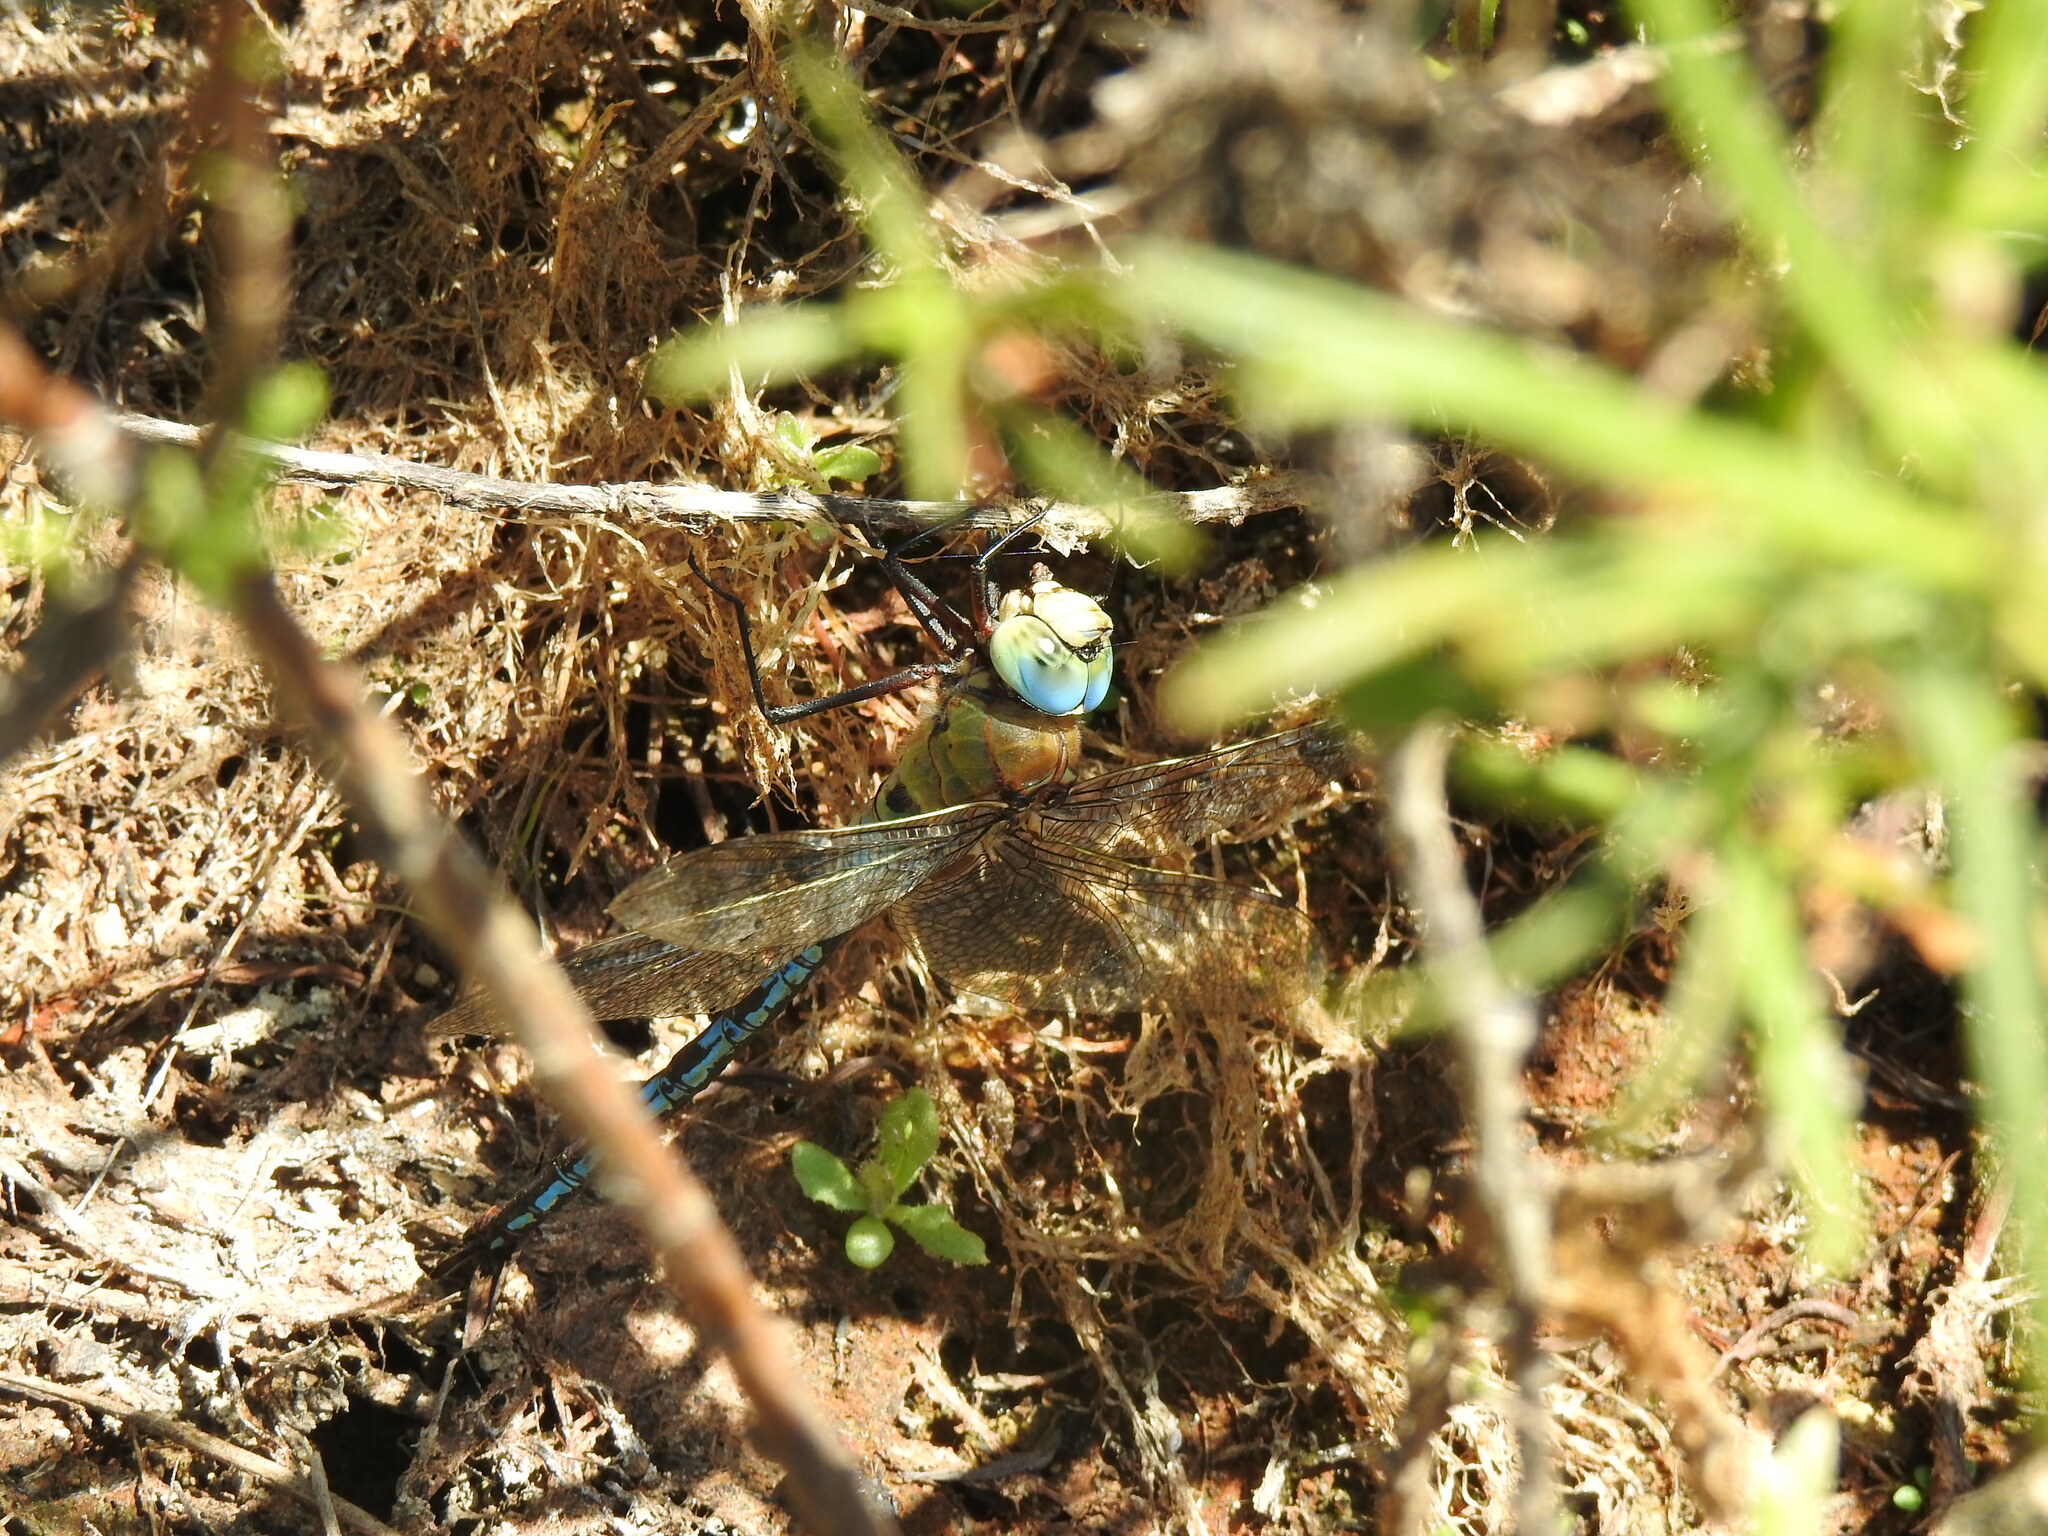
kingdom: Animalia
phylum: Arthropoda
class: Insecta
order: Odonata
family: Aeshnidae
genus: Anax
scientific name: Anax imperator
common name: Emperor dragonfly
